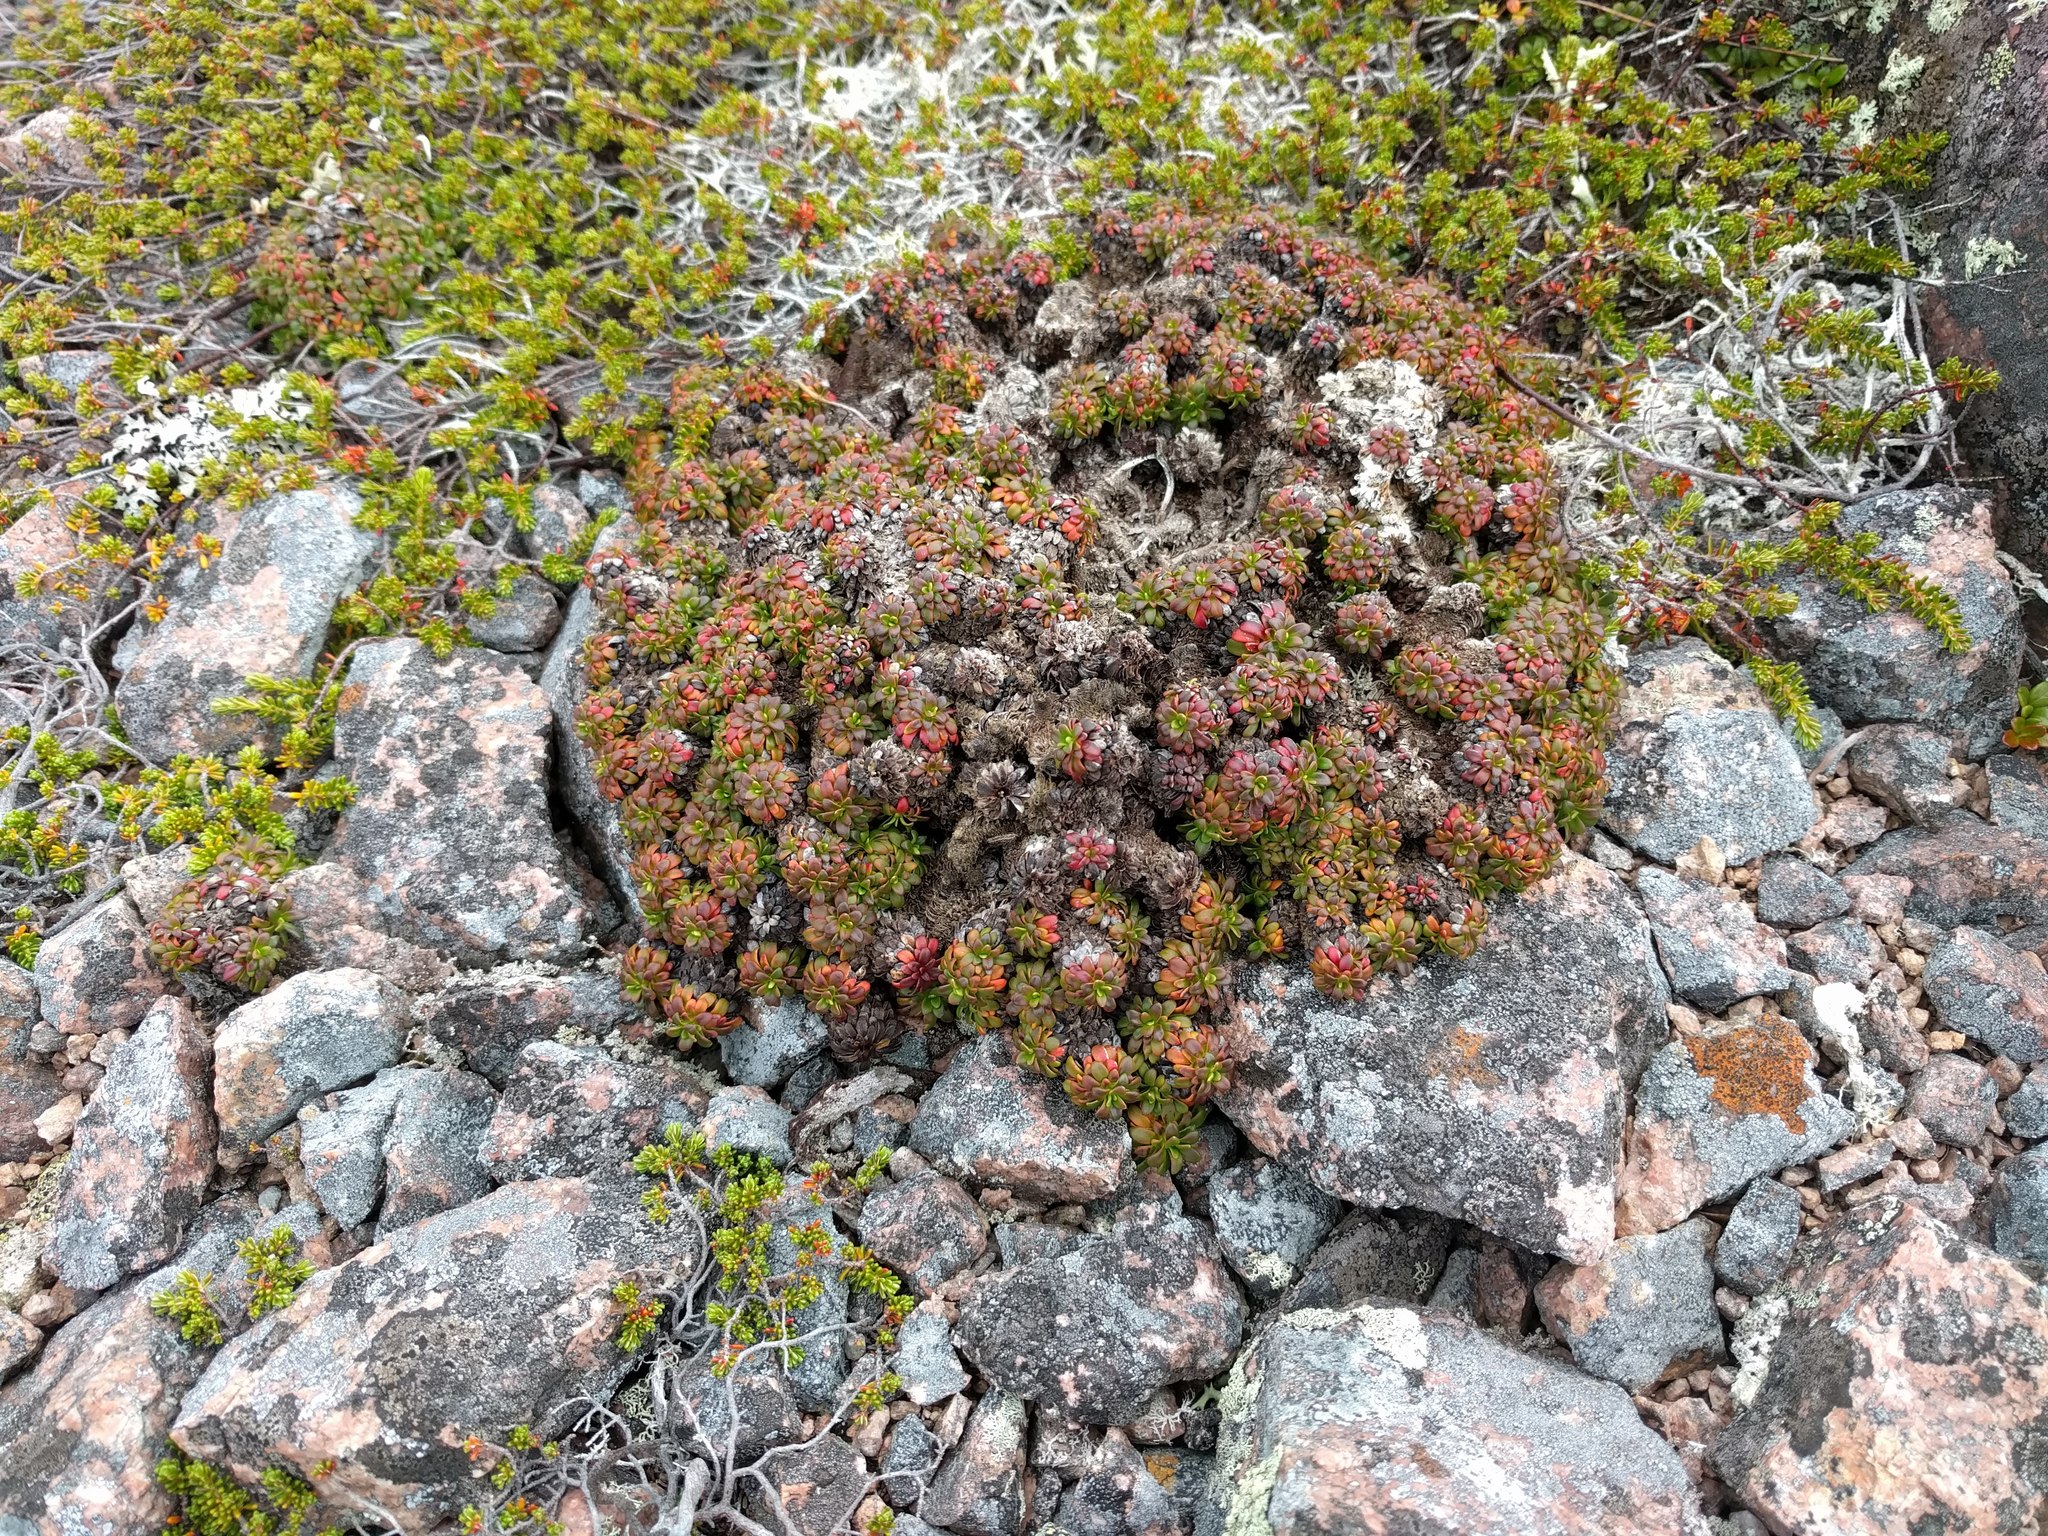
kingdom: Plantae
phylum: Tracheophyta
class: Magnoliopsida
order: Ericales
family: Diapensiaceae
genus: Diapensia
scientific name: Diapensia lapponica
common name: Diapensia
